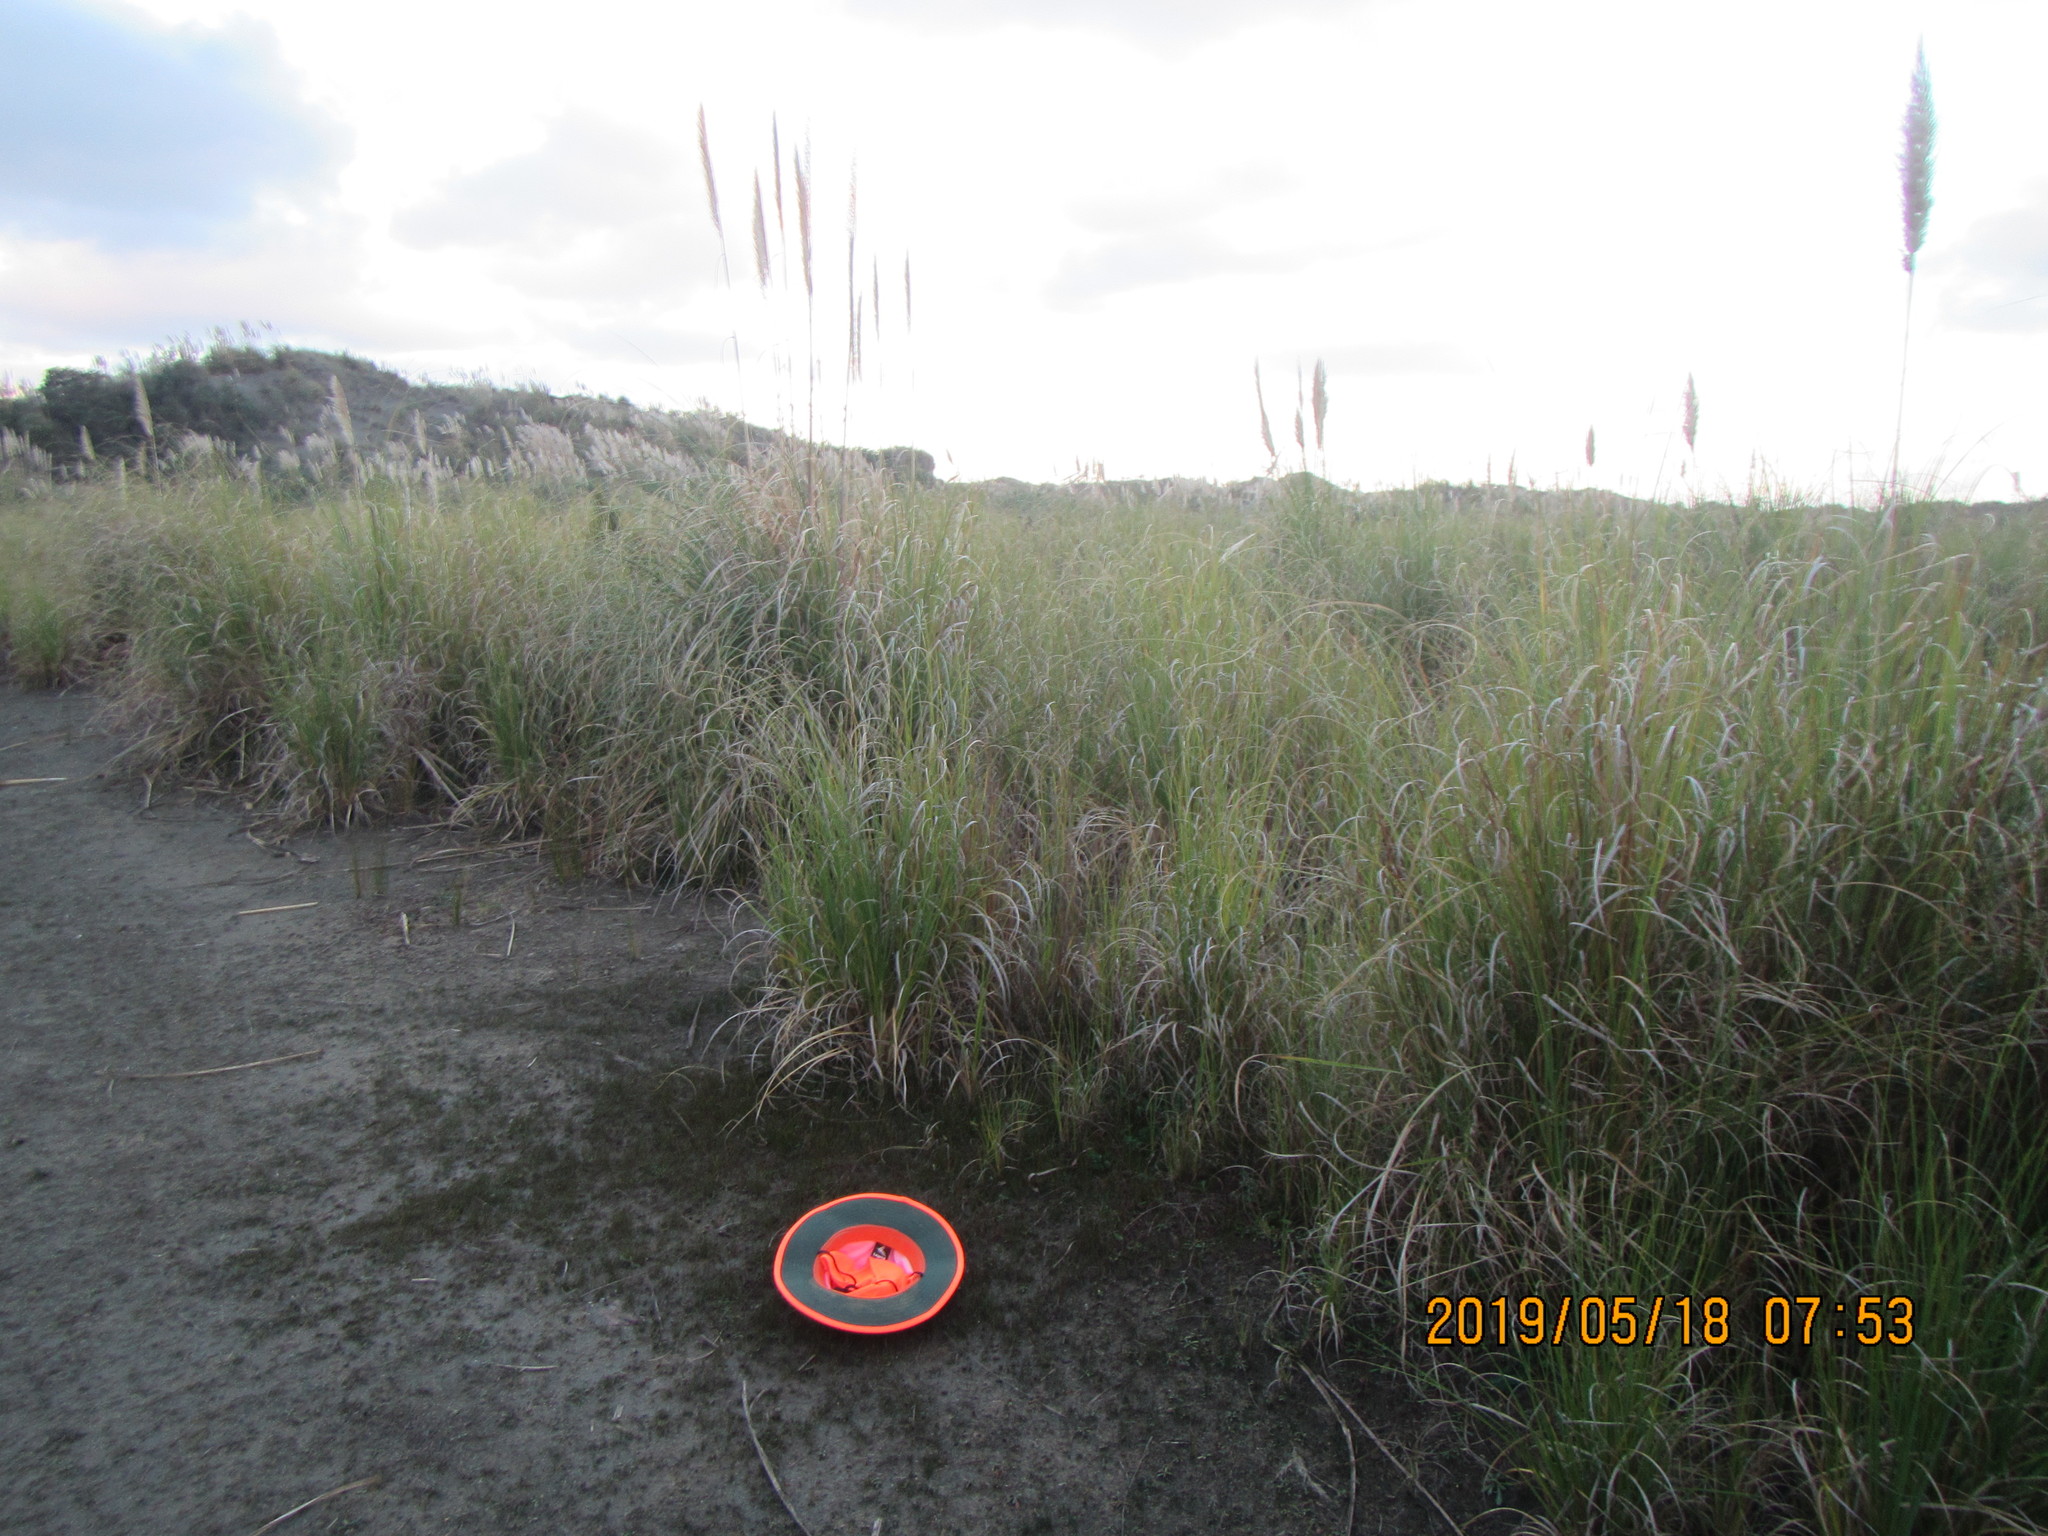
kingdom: Plantae
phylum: Tracheophyta
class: Liliopsida
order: Poales
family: Cyperaceae
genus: Schoenus
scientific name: Schoenus nitens
